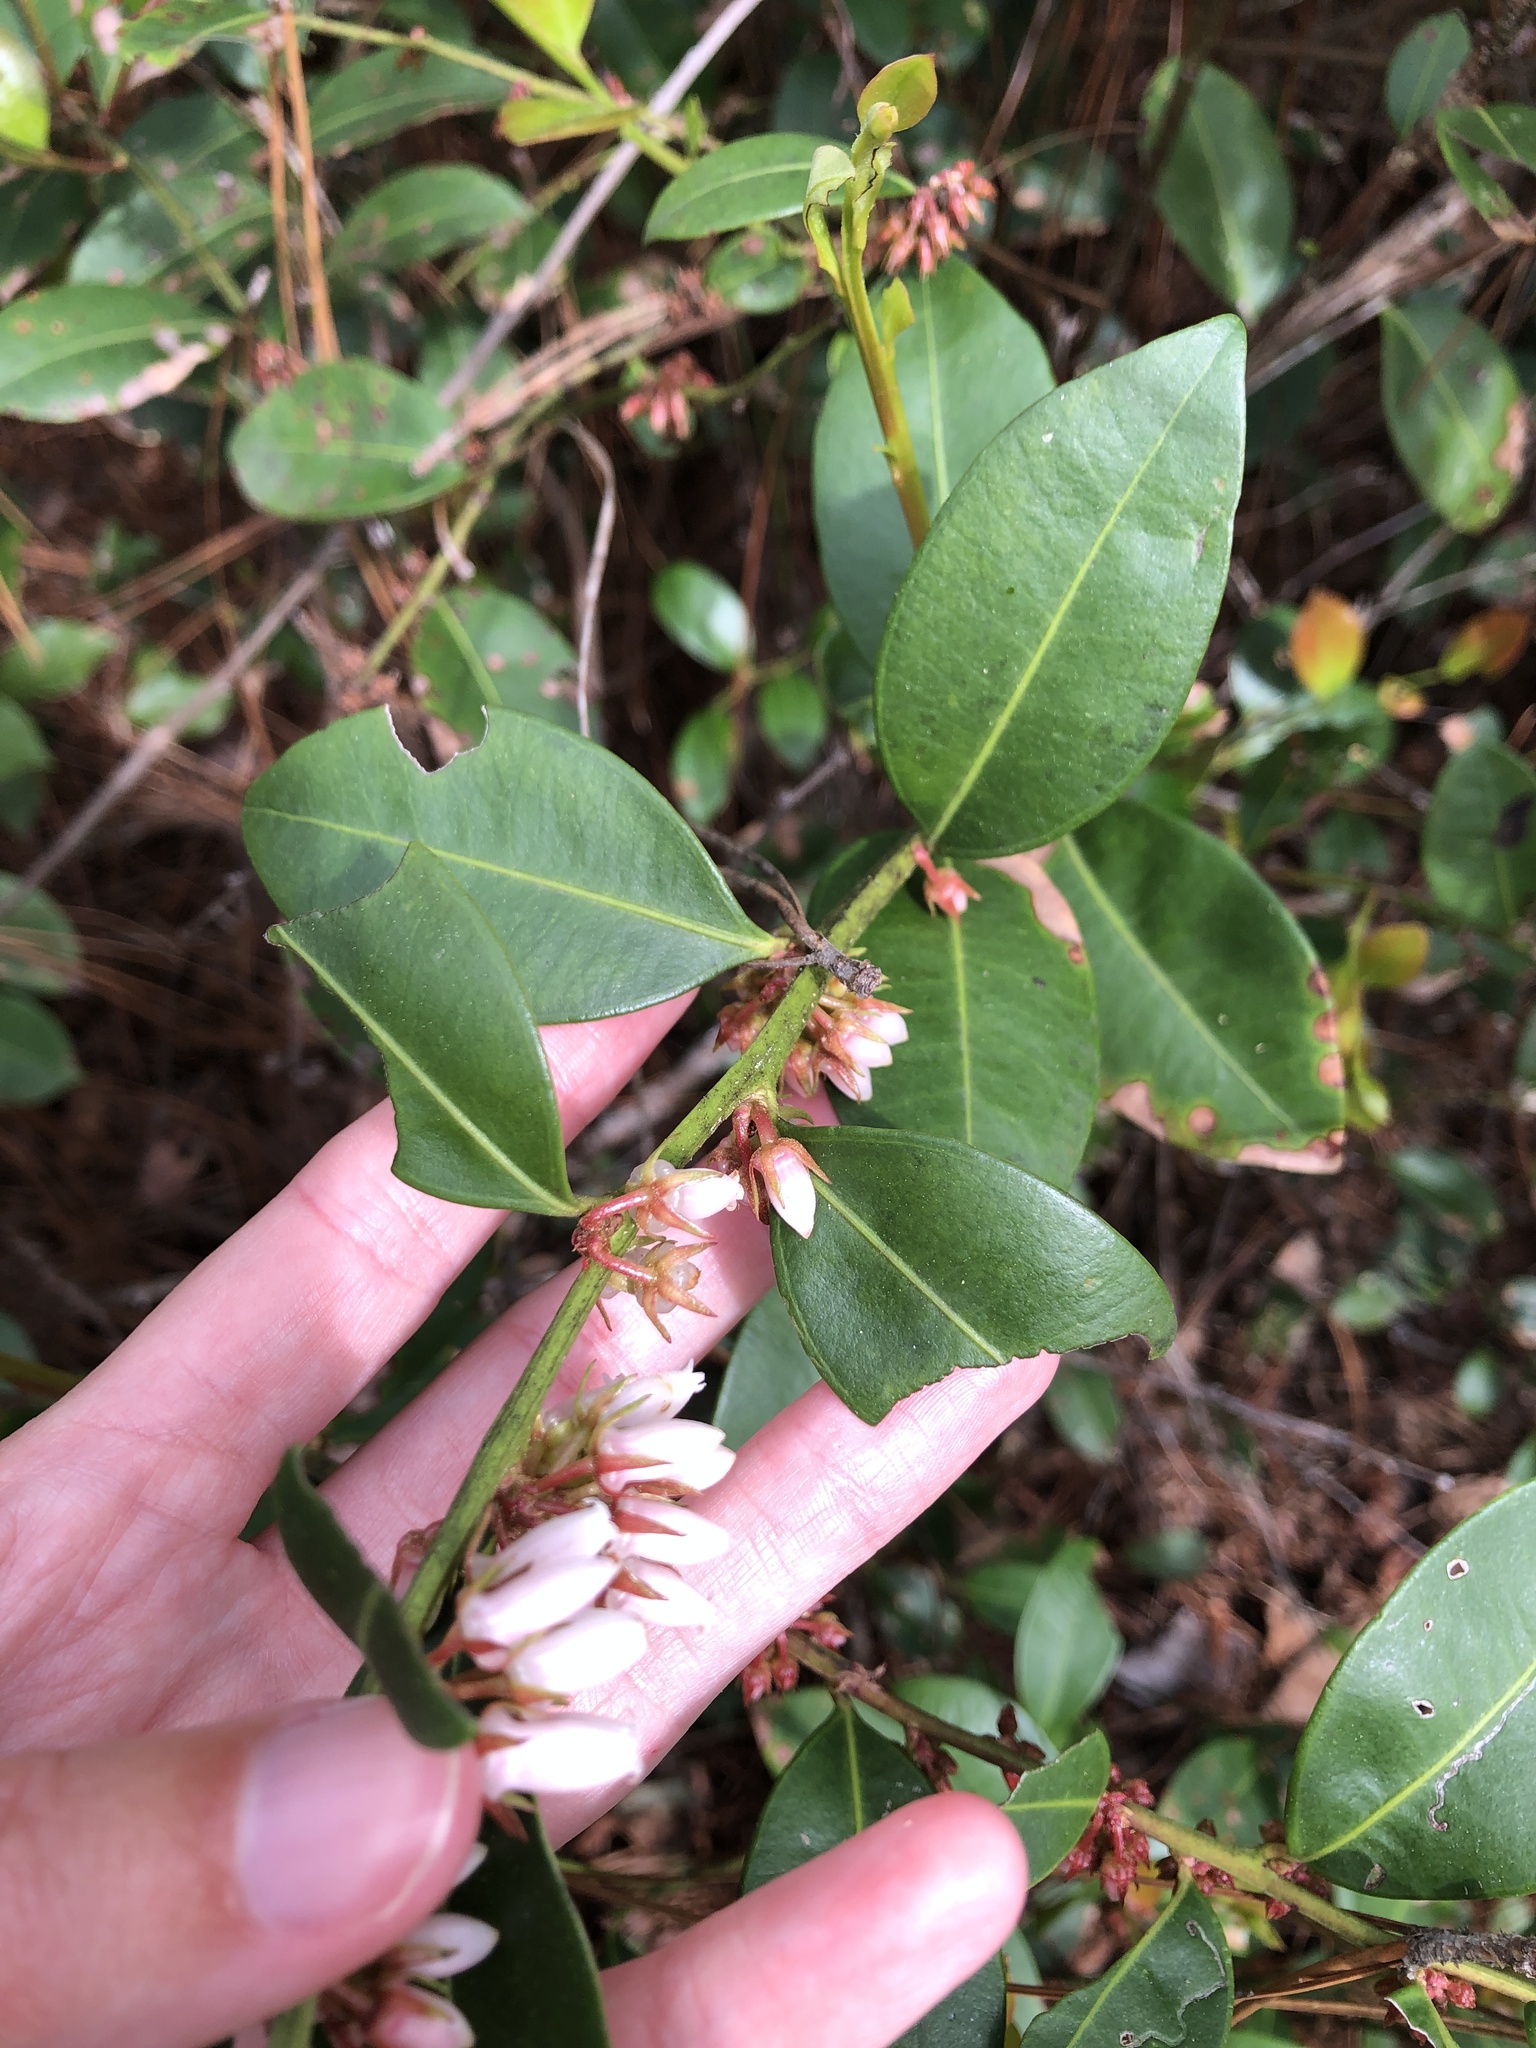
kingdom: Plantae
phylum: Tracheophyta
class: Magnoliopsida
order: Ericales
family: Ericaceae
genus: Lyonia
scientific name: Lyonia lucida
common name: Fetterbush
